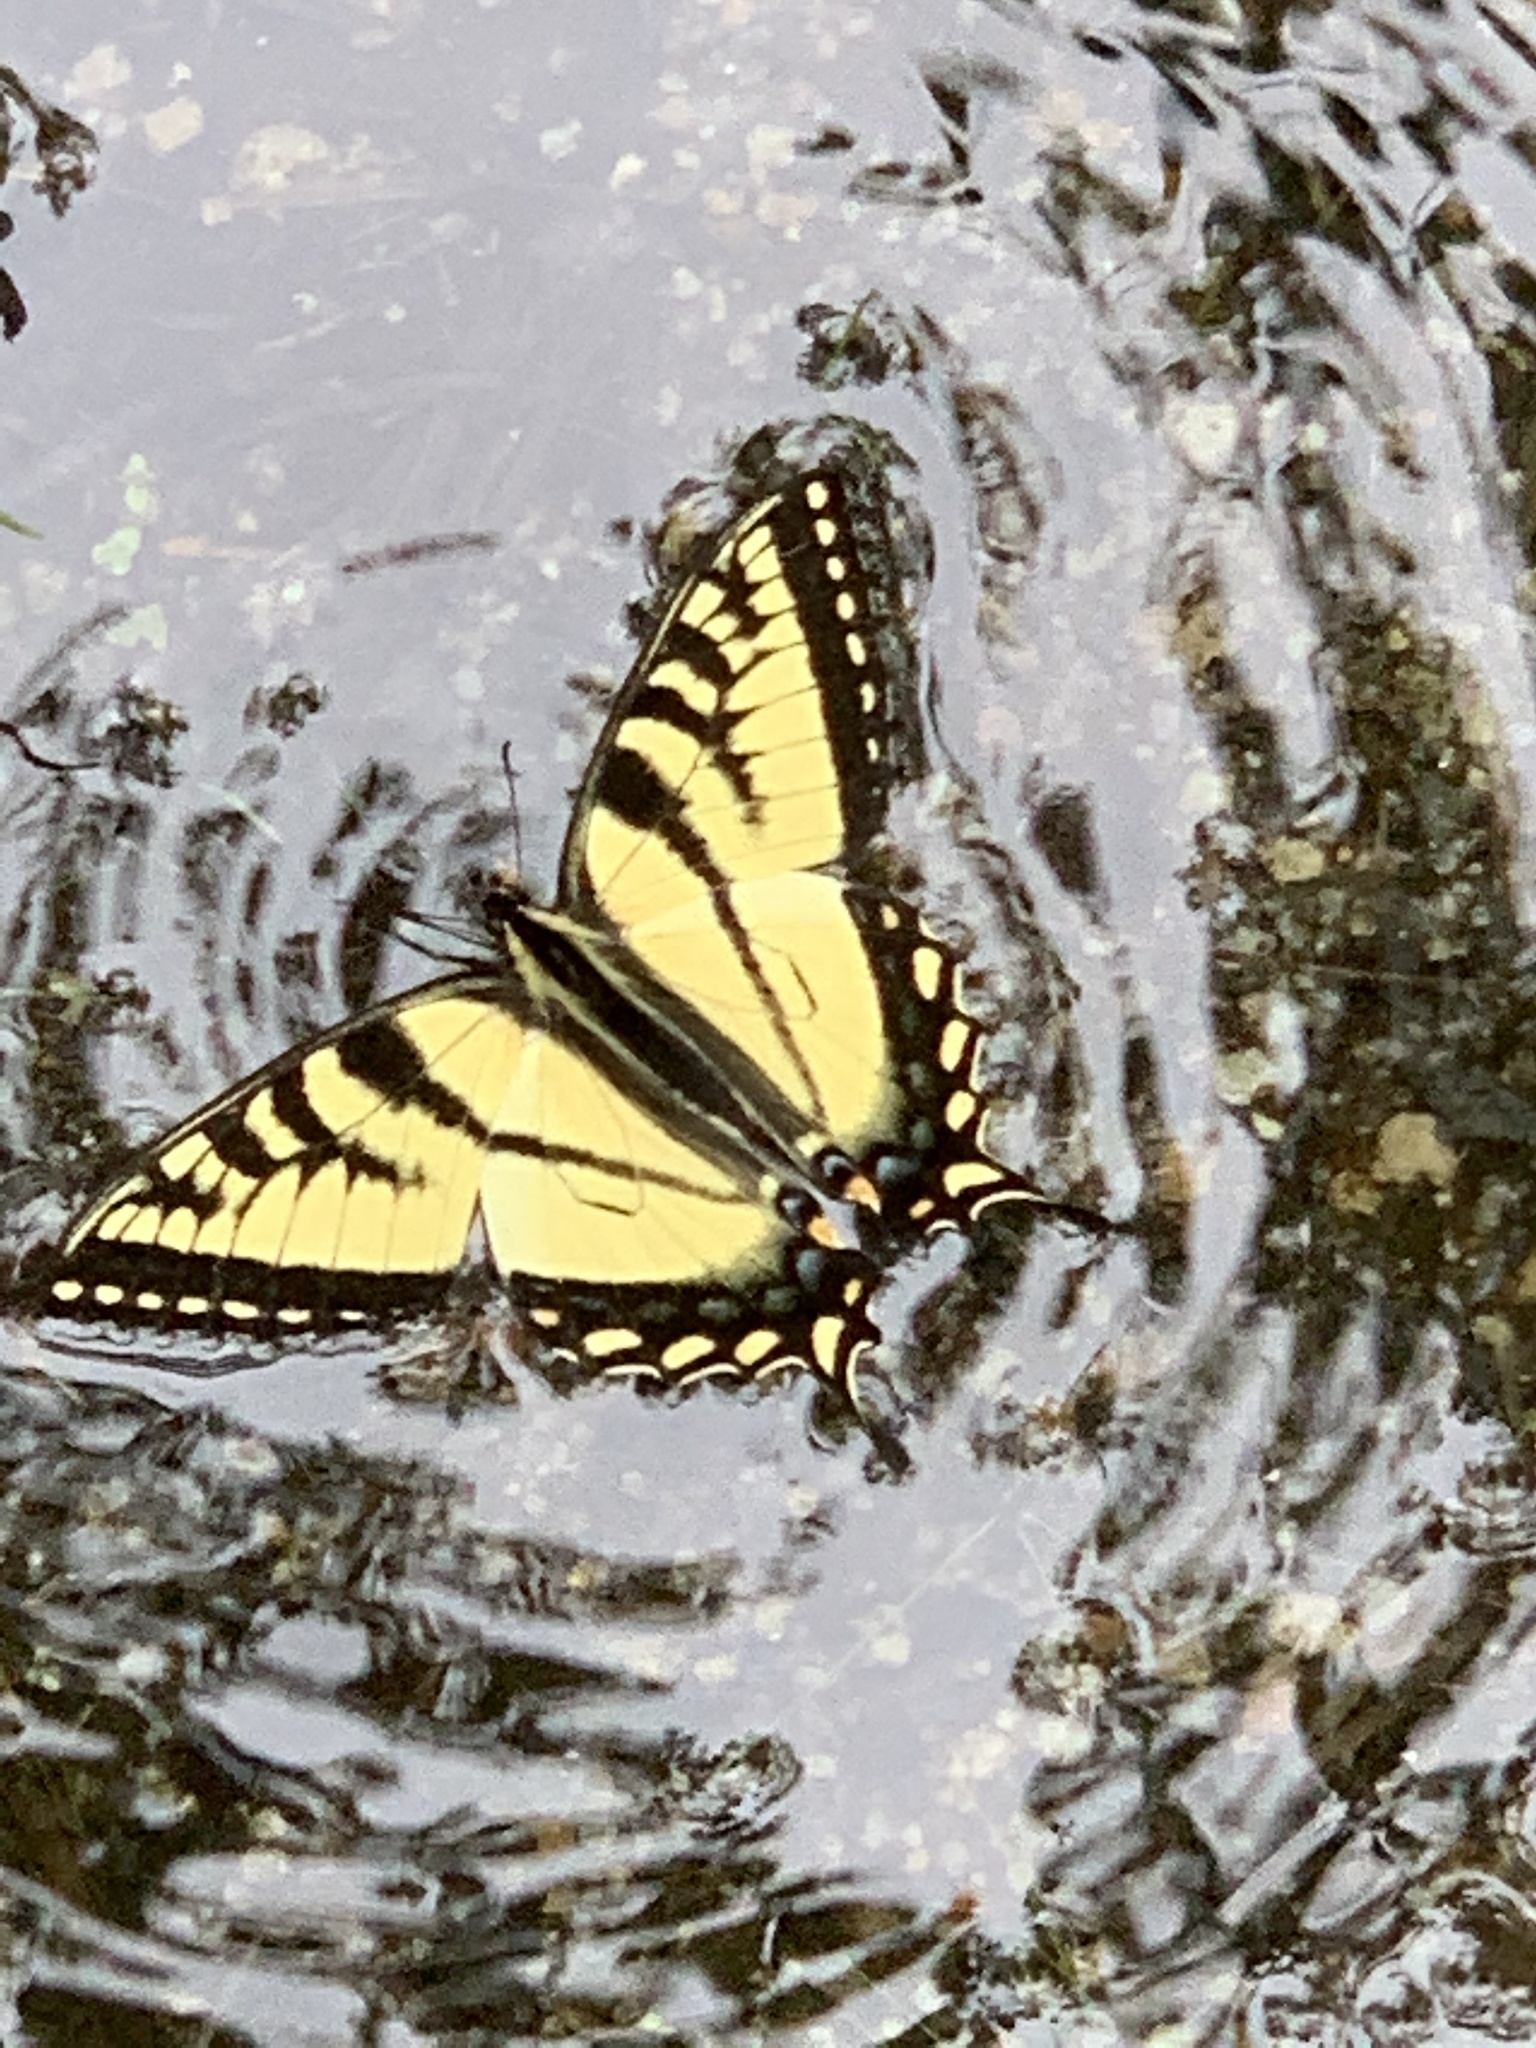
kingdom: Animalia
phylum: Arthropoda
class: Insecta
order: Lepidoptera
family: Papilionidae
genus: Papilio
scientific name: Papilio canadensis
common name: Canadian tiger swallowtail
